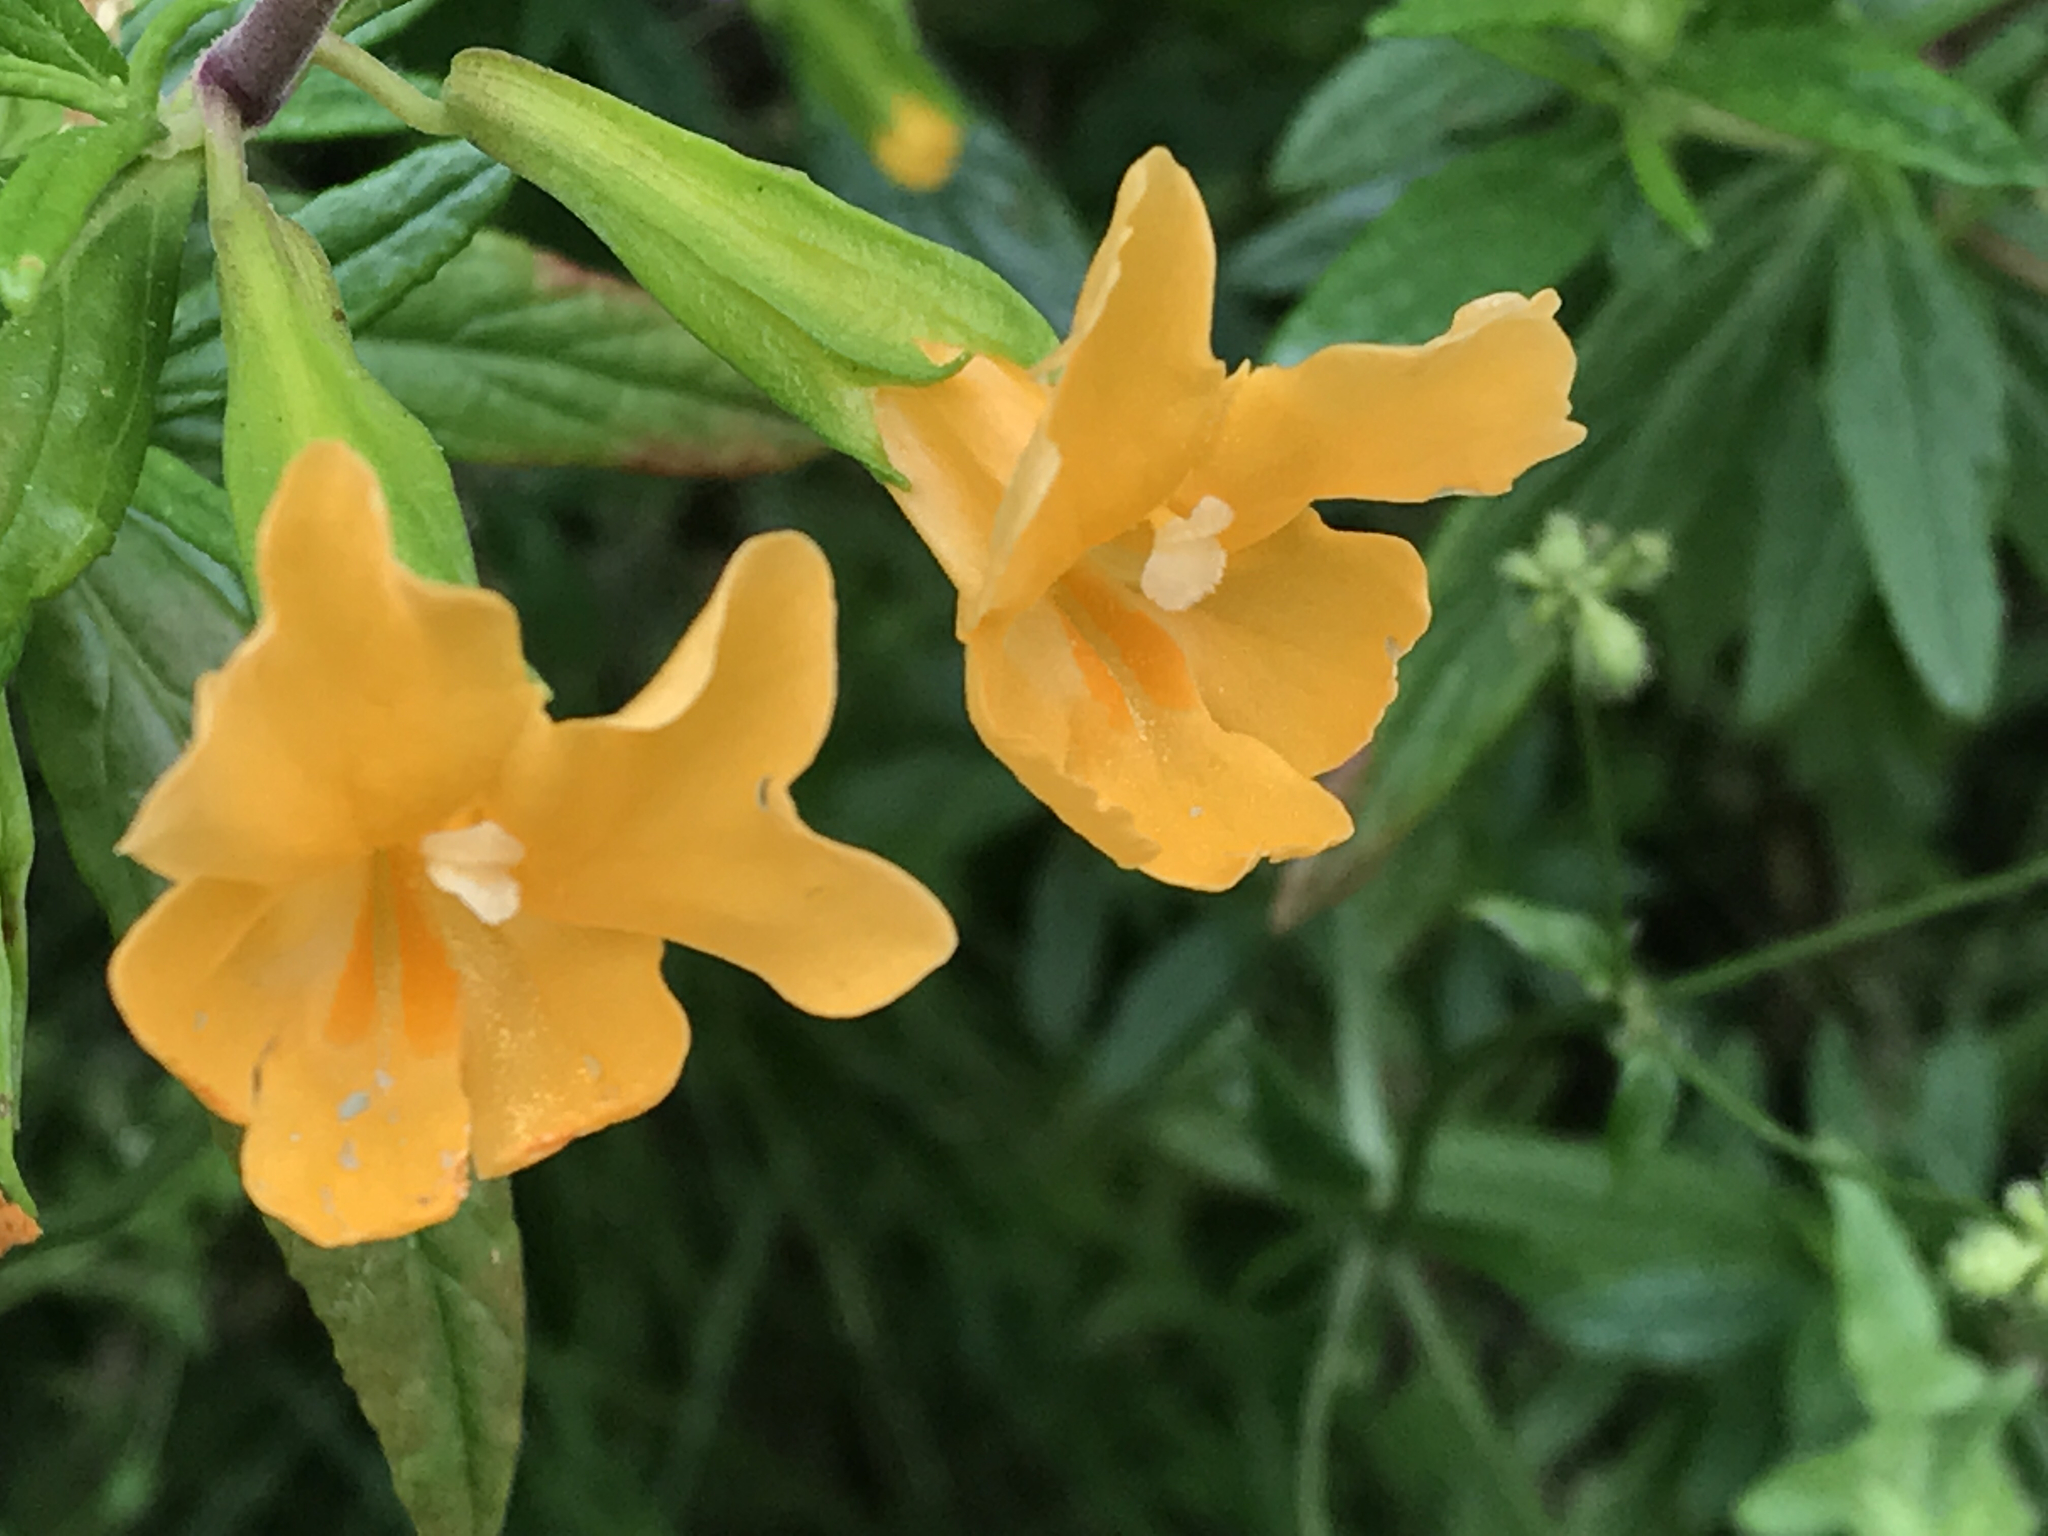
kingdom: Plantae
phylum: Tracheophyta
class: Magnoliopsida
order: Lamiales
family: Phrymaceae
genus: Diplacus
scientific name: Diplacus aurantiacus
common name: Bush monkey-flower
